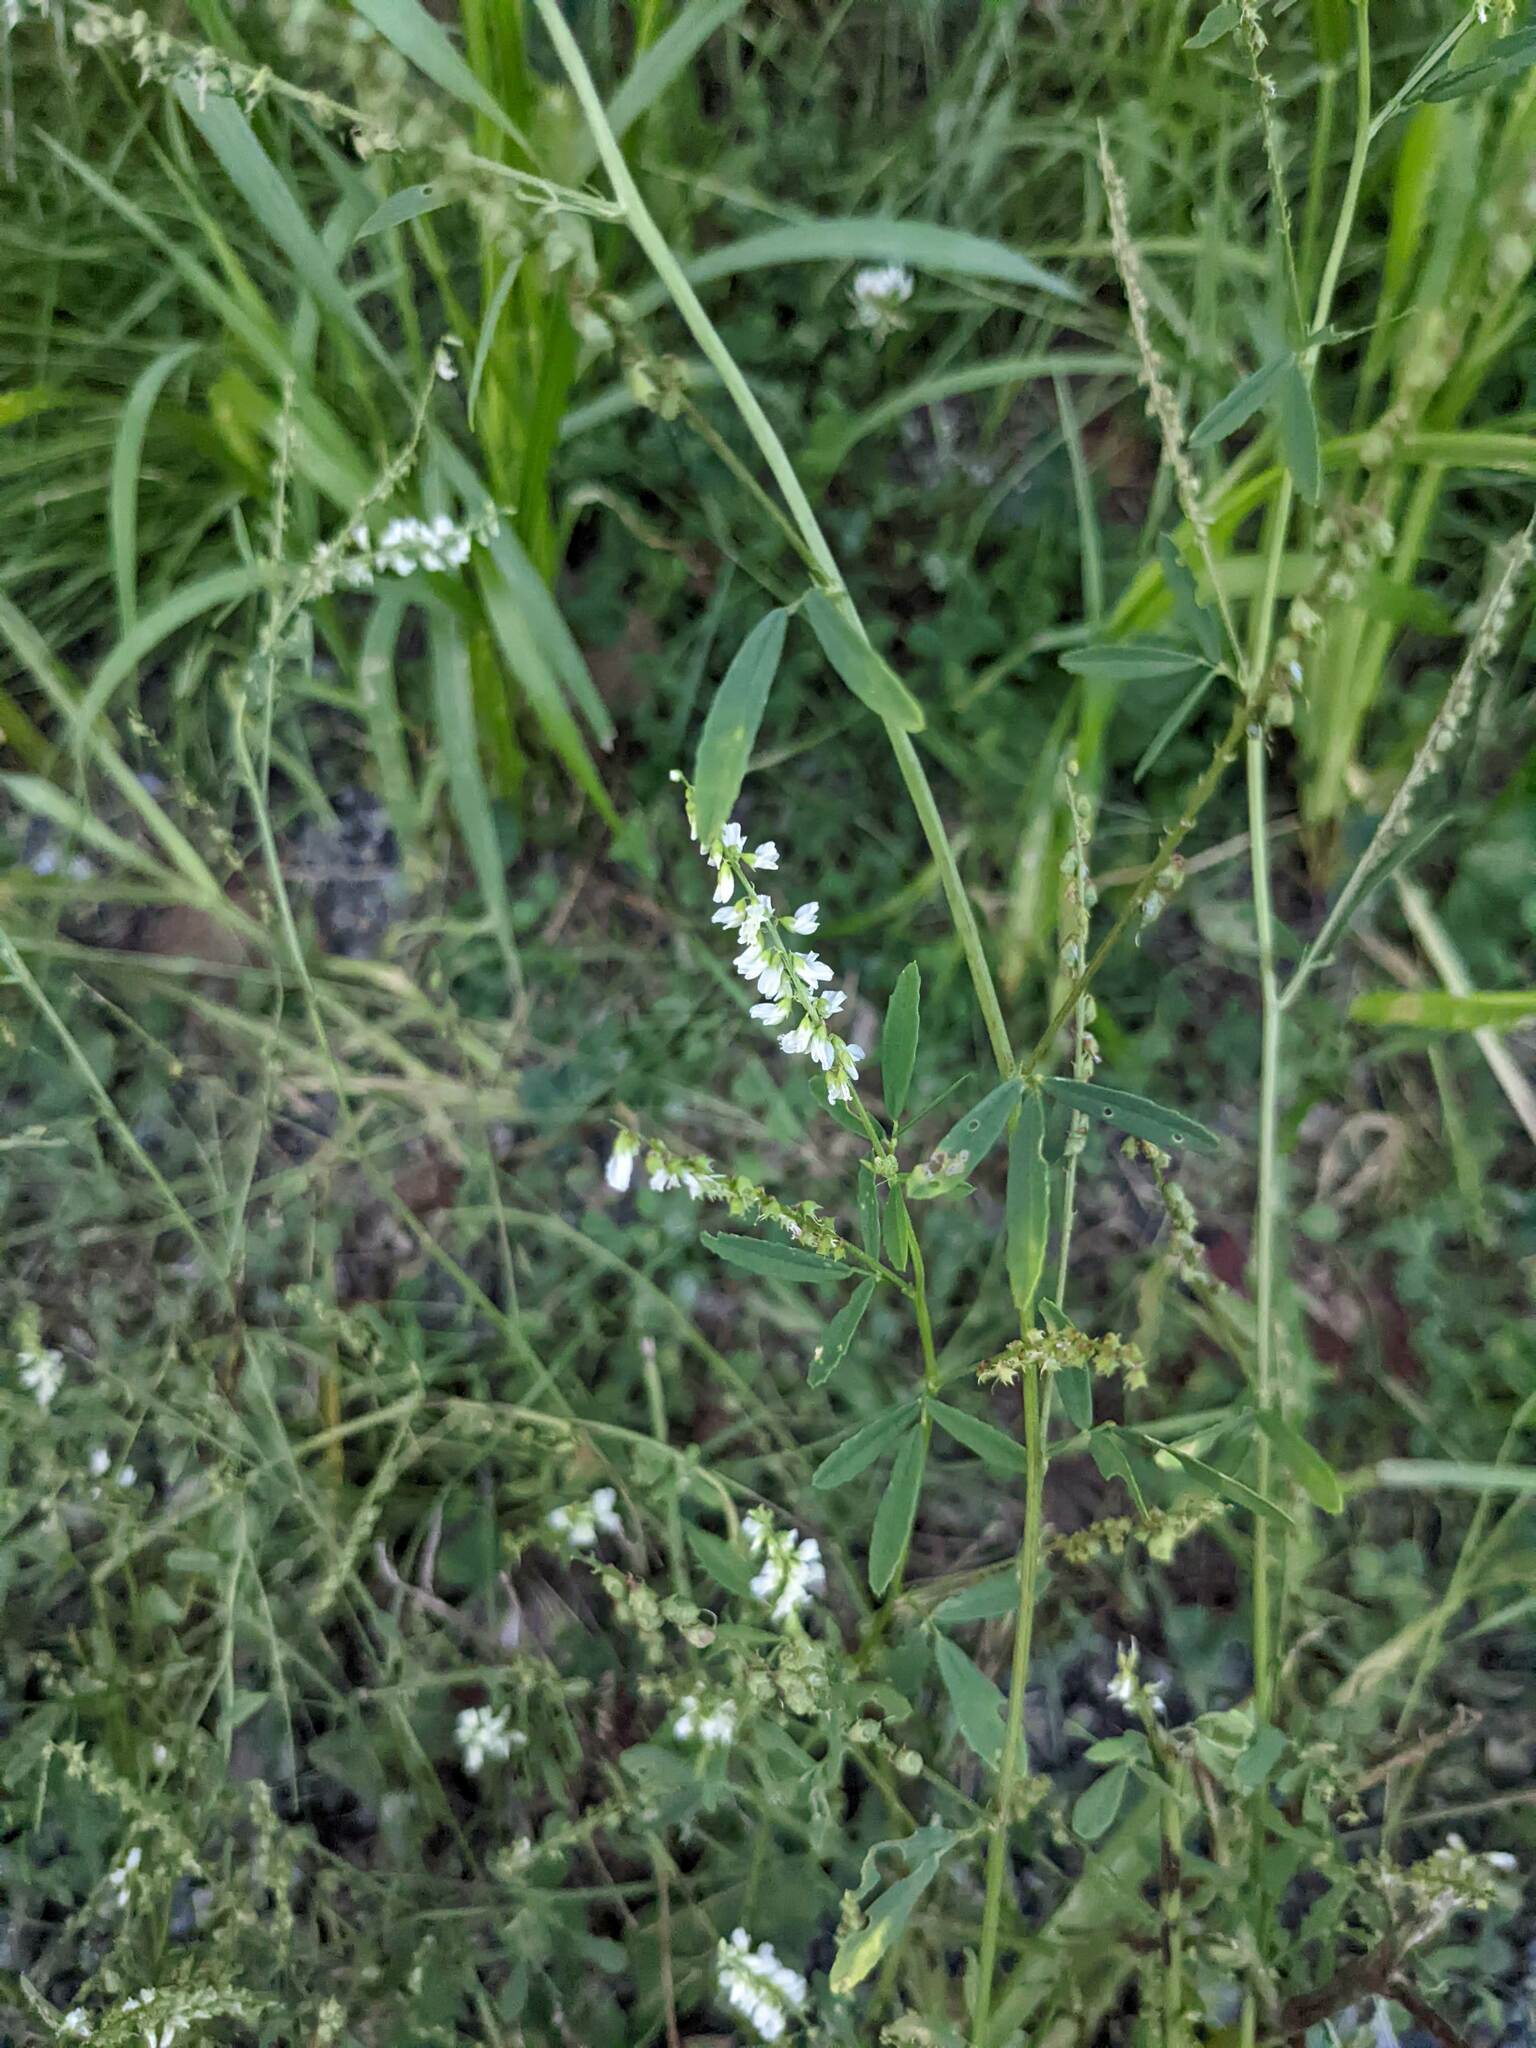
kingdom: Plantae
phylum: Tracheophyta
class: Magnoliopsida
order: Fabales
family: Fabaceae
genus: Melilotus
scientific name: Melilotus albus
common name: White melilot
